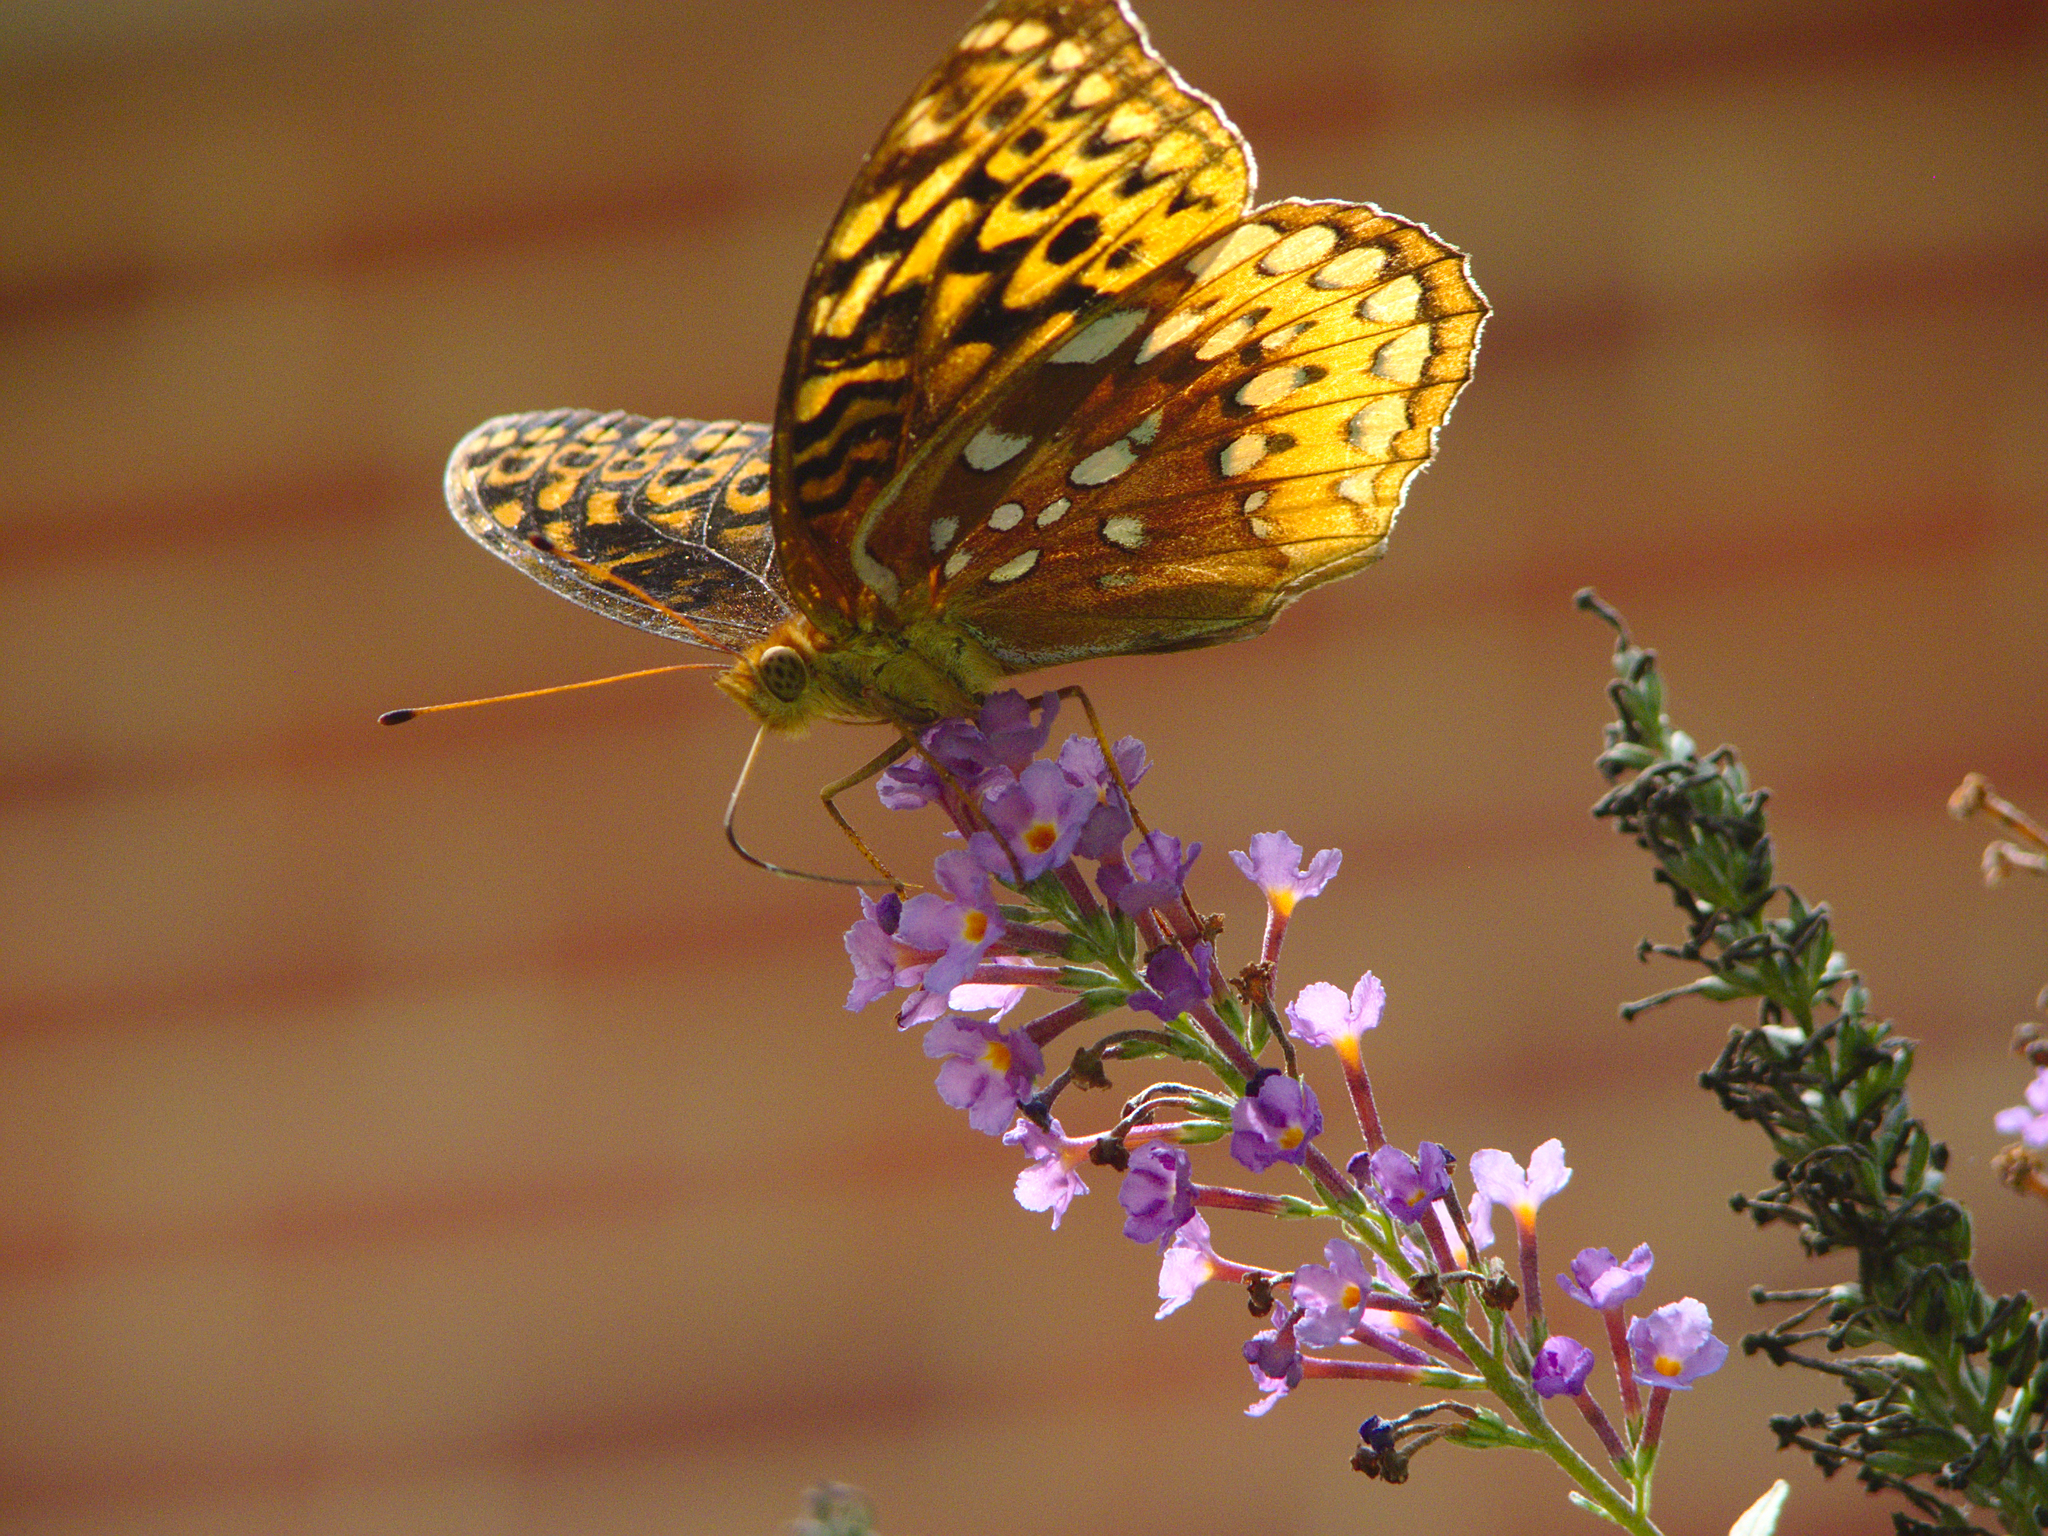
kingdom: Animalia
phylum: Arthropoda
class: Insecta
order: Lepidoptera
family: Nymphalidae
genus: Speyeria
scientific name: Speyeria cybele
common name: Great spangled fritillary
